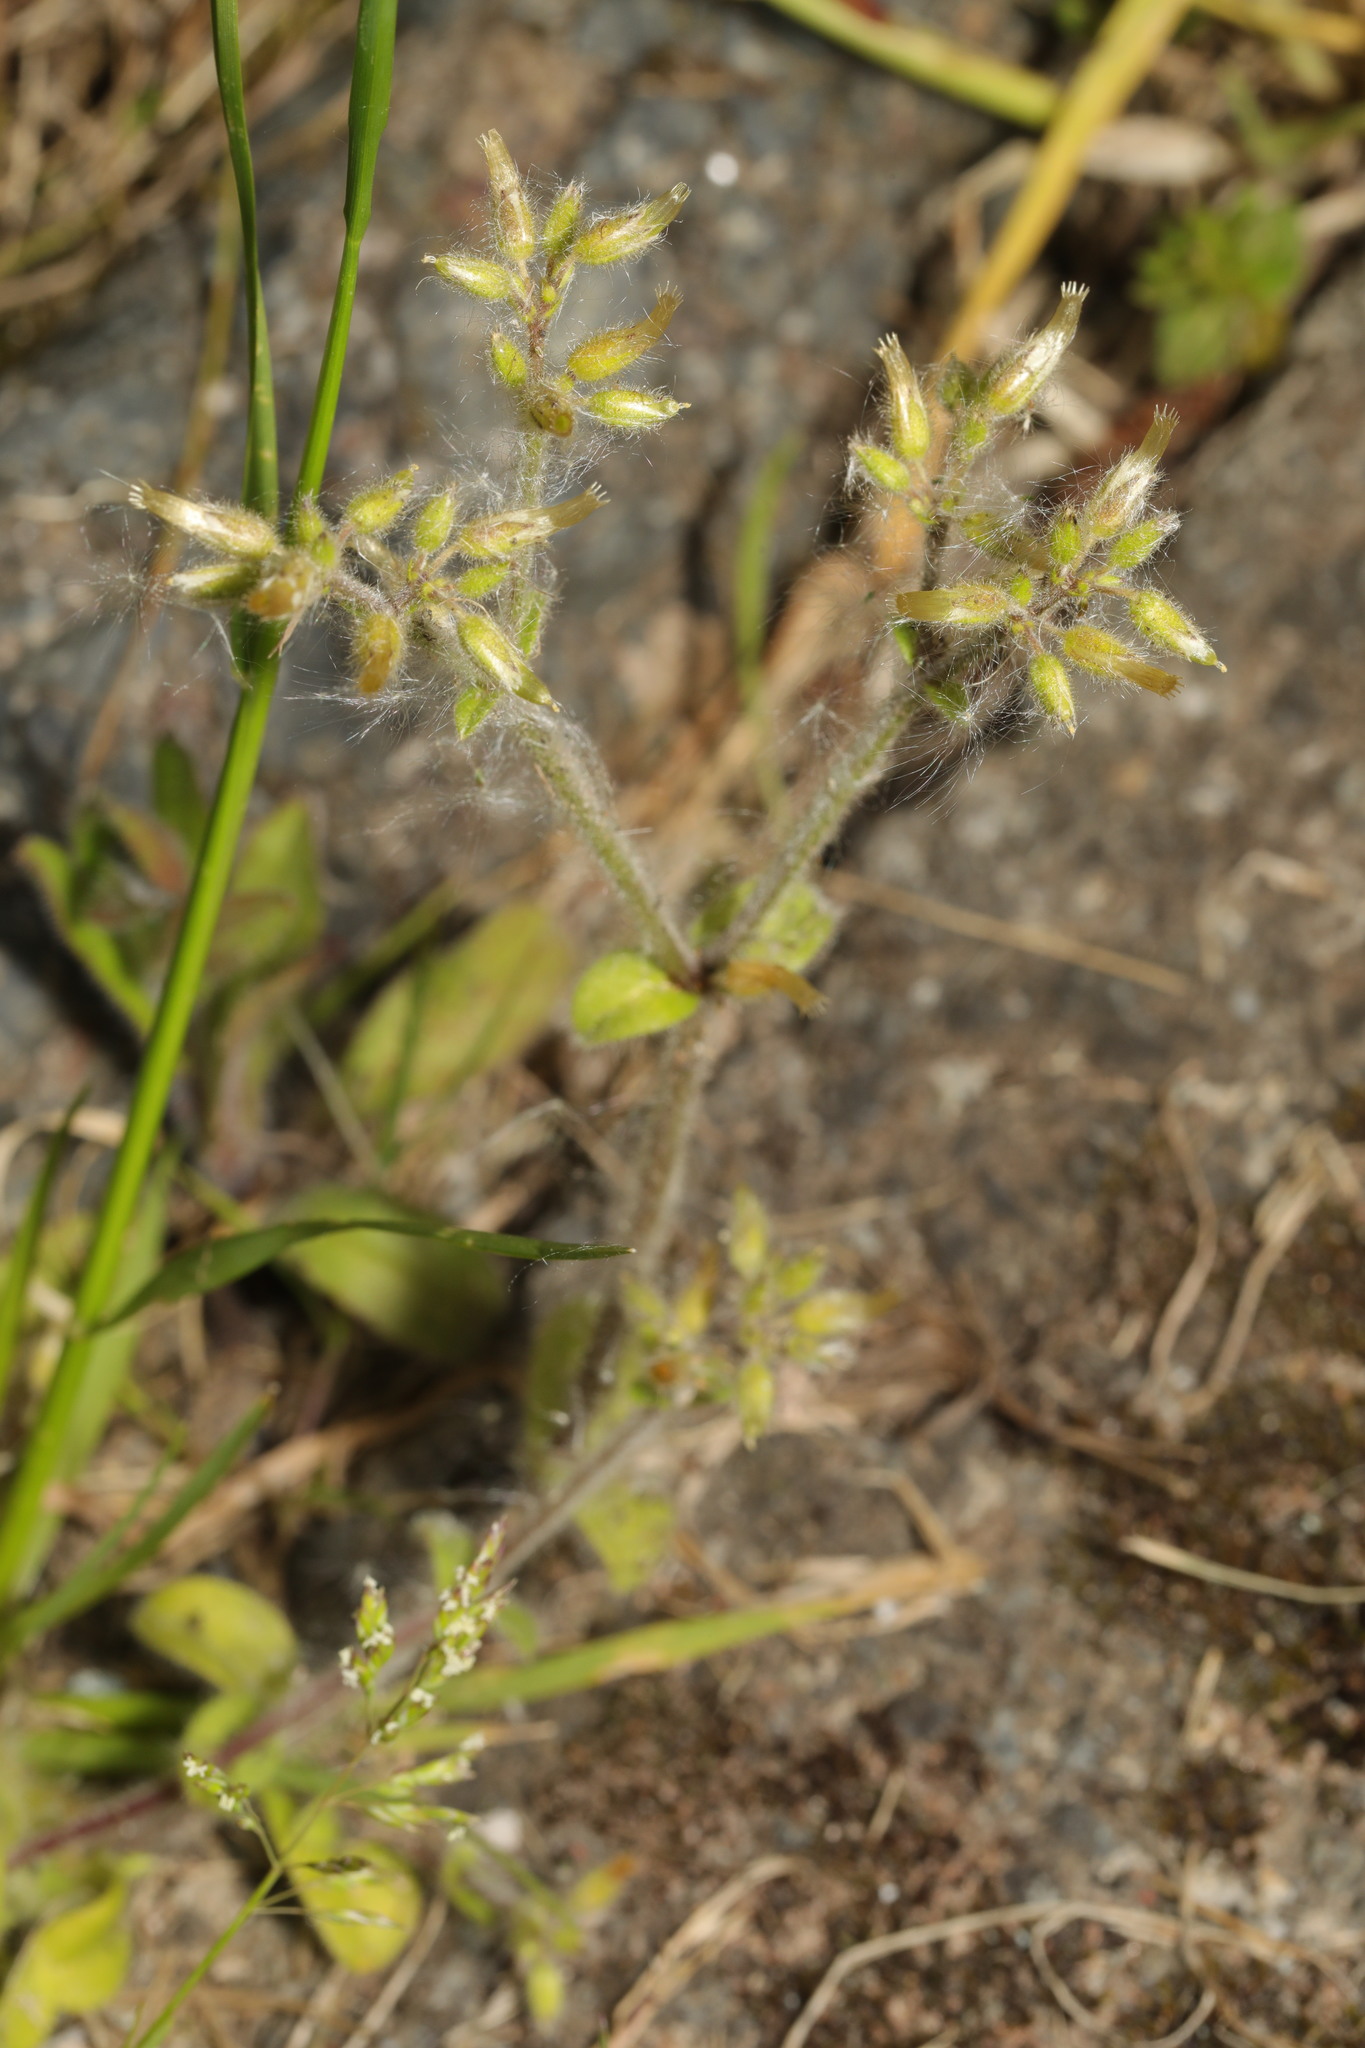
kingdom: Plantae
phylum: Tracheophyta
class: Magnoliopsida
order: Caryophyllales
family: Caryophyllaceae
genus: Cerastium
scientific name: Cerastium glomeratum
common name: Sticky chickweed
